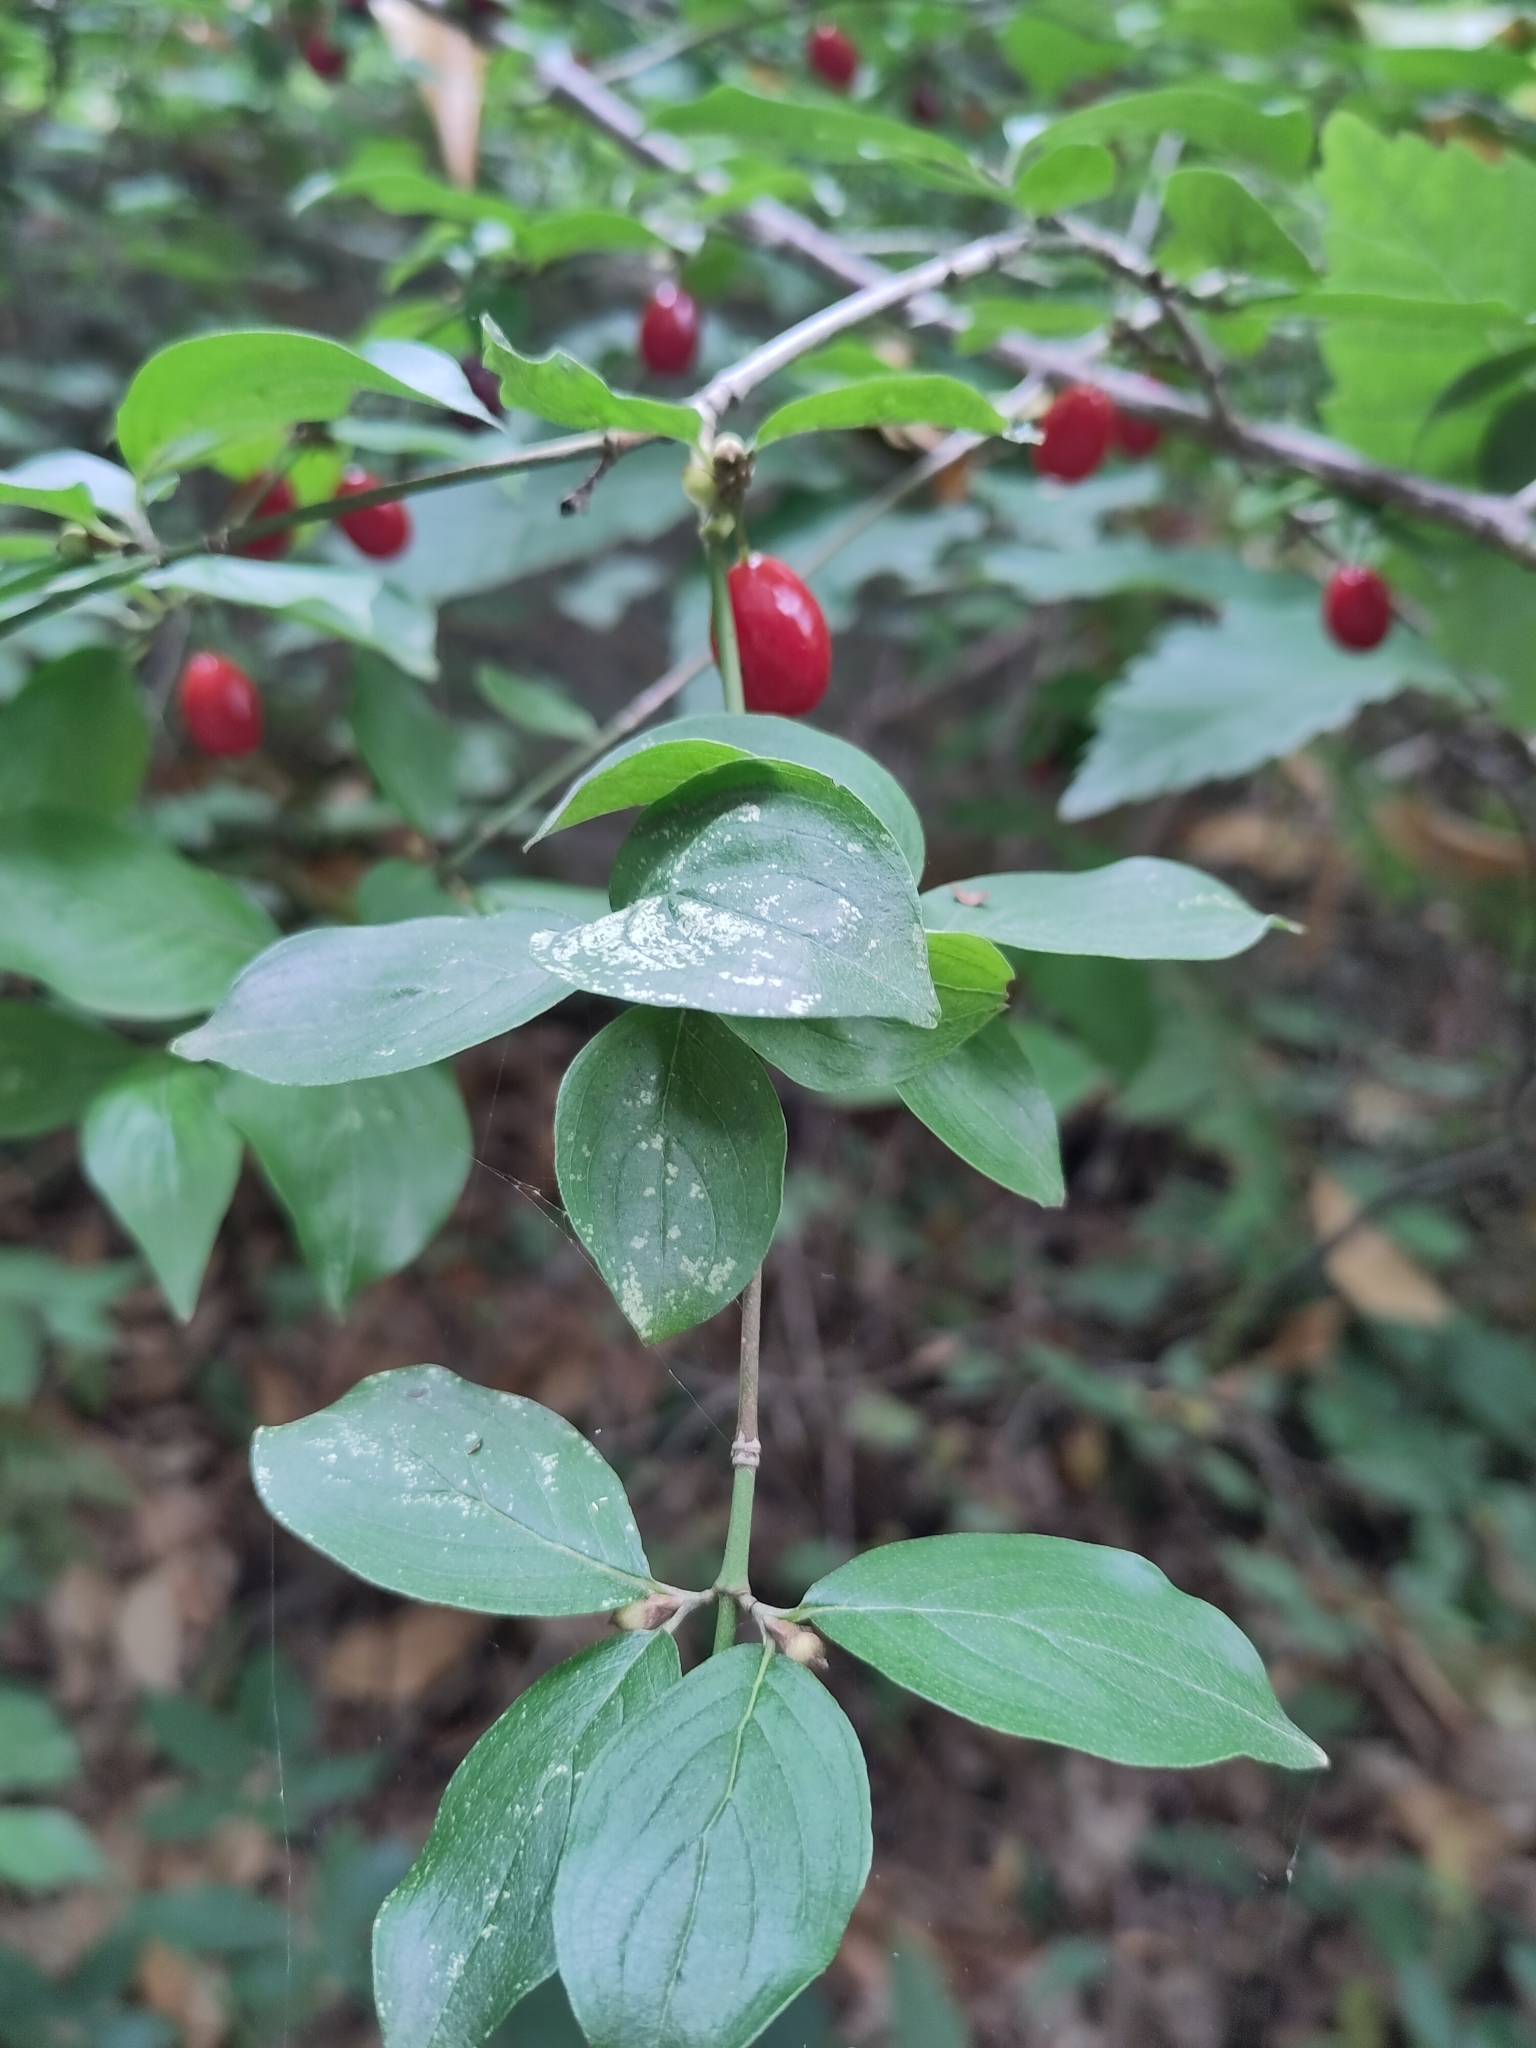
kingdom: Plantae
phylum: Tracheophyta
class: Magnoliopsida
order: Cornales
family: Cornaceae
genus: Cornus
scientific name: Cornus mas
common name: Cornelian-cherry
